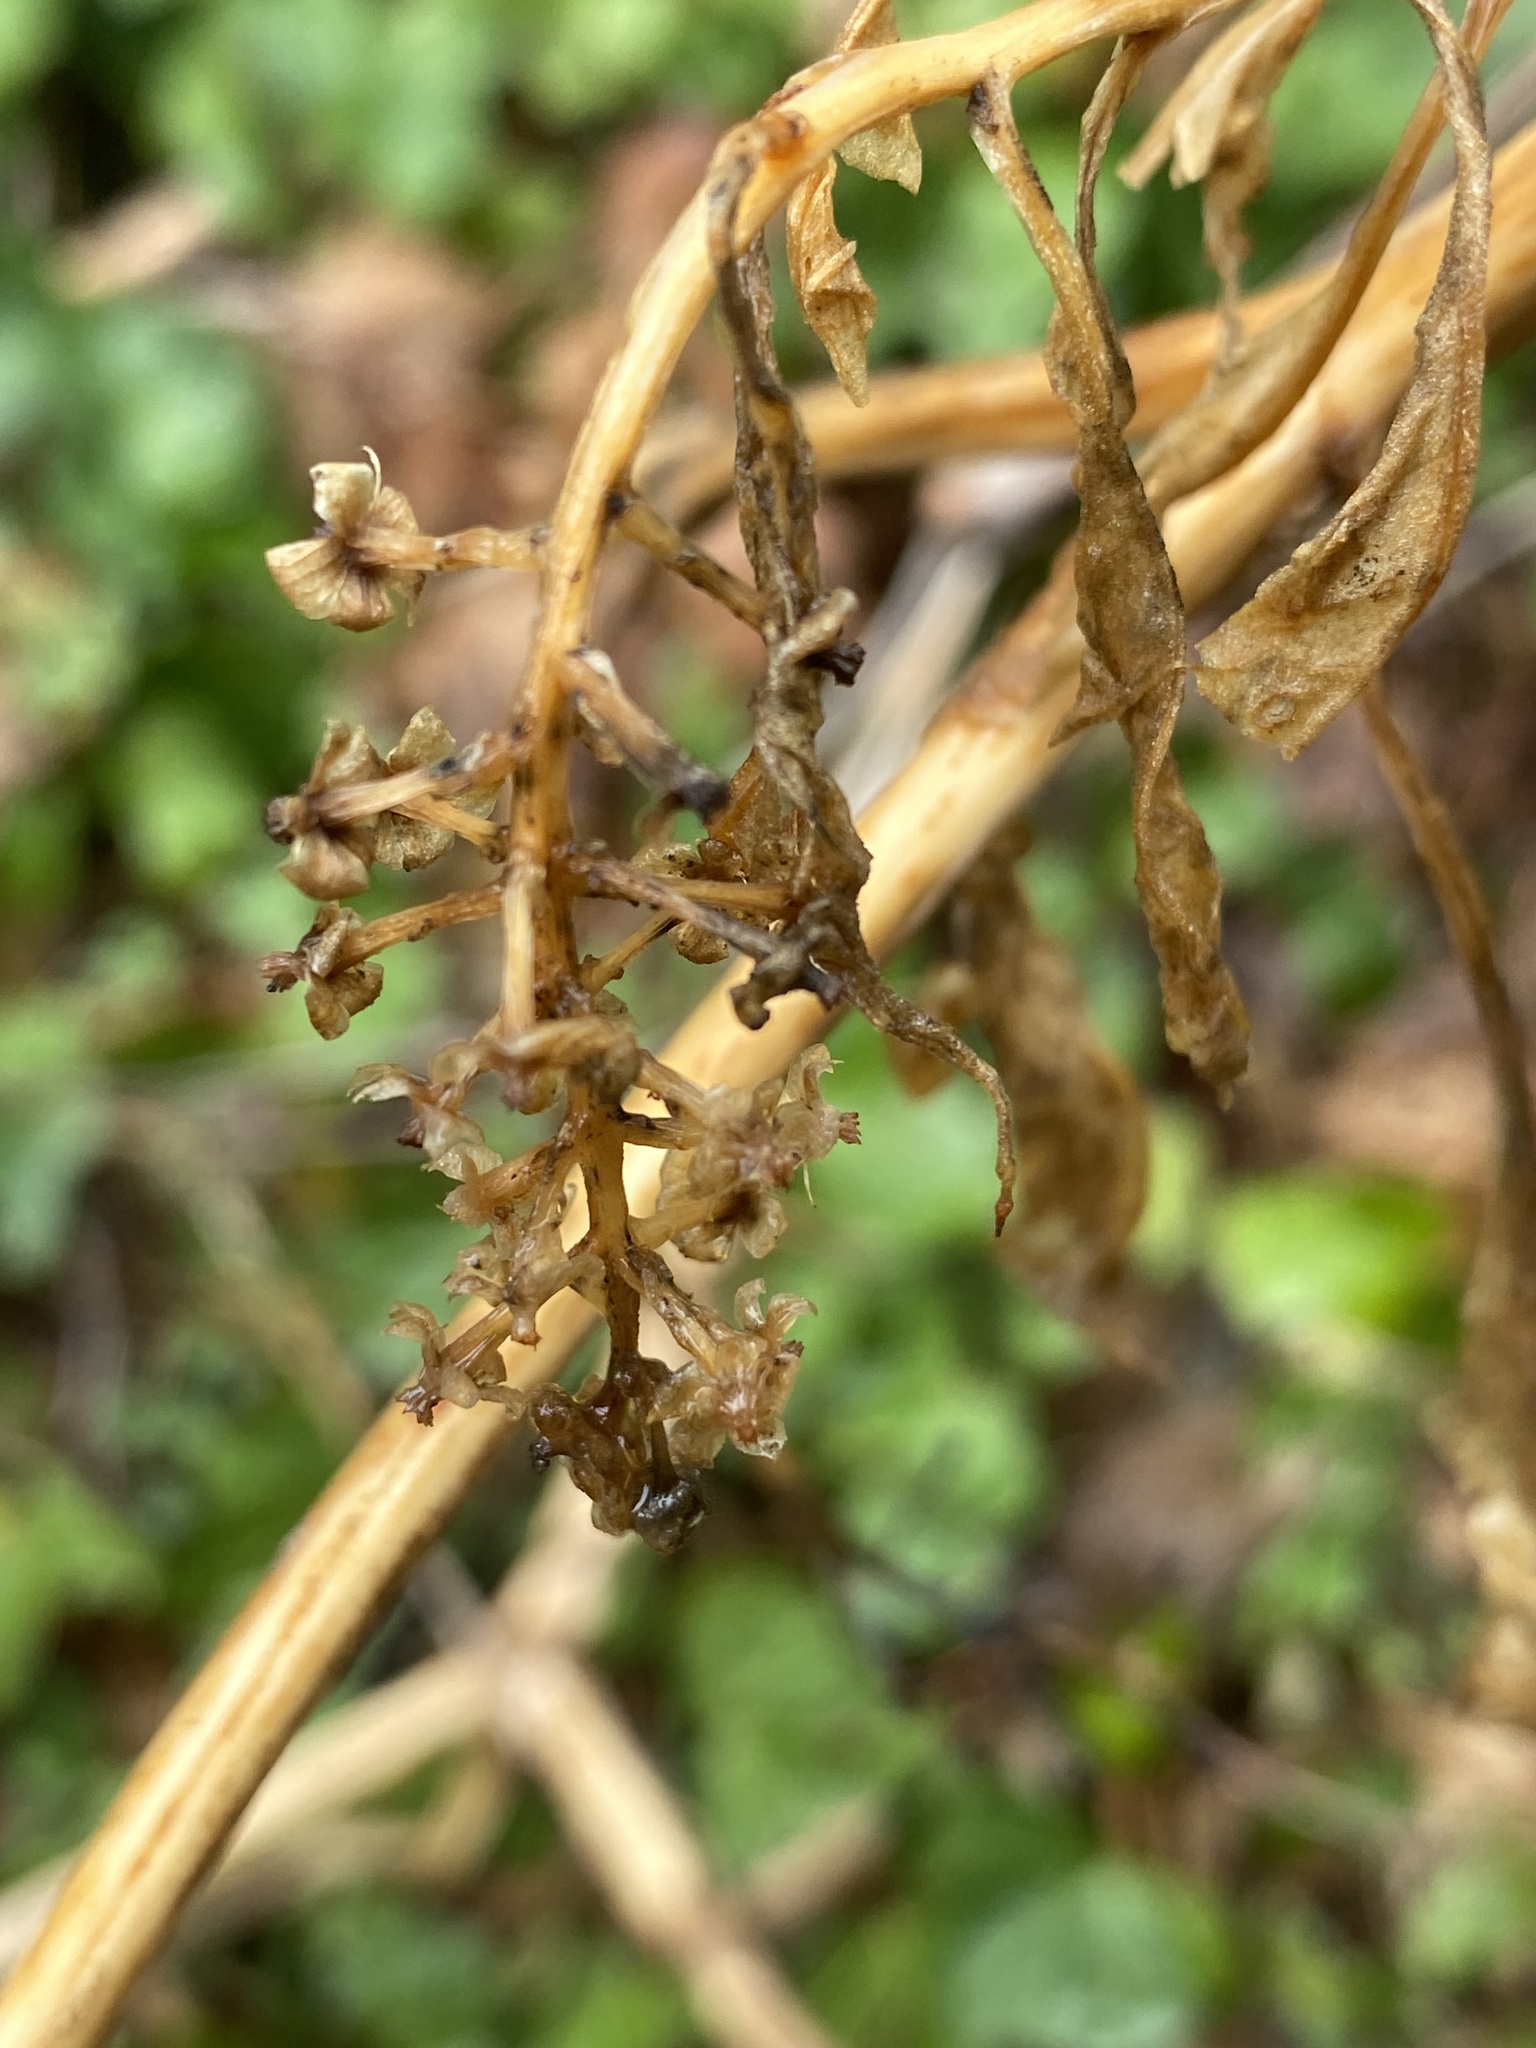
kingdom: Plantae
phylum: Tracheophyta
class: Magnoliopsida
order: Caryophyllales
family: Phytolaccaceae
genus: Phytolacca
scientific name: Phytolacca americana
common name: American pokeweed
